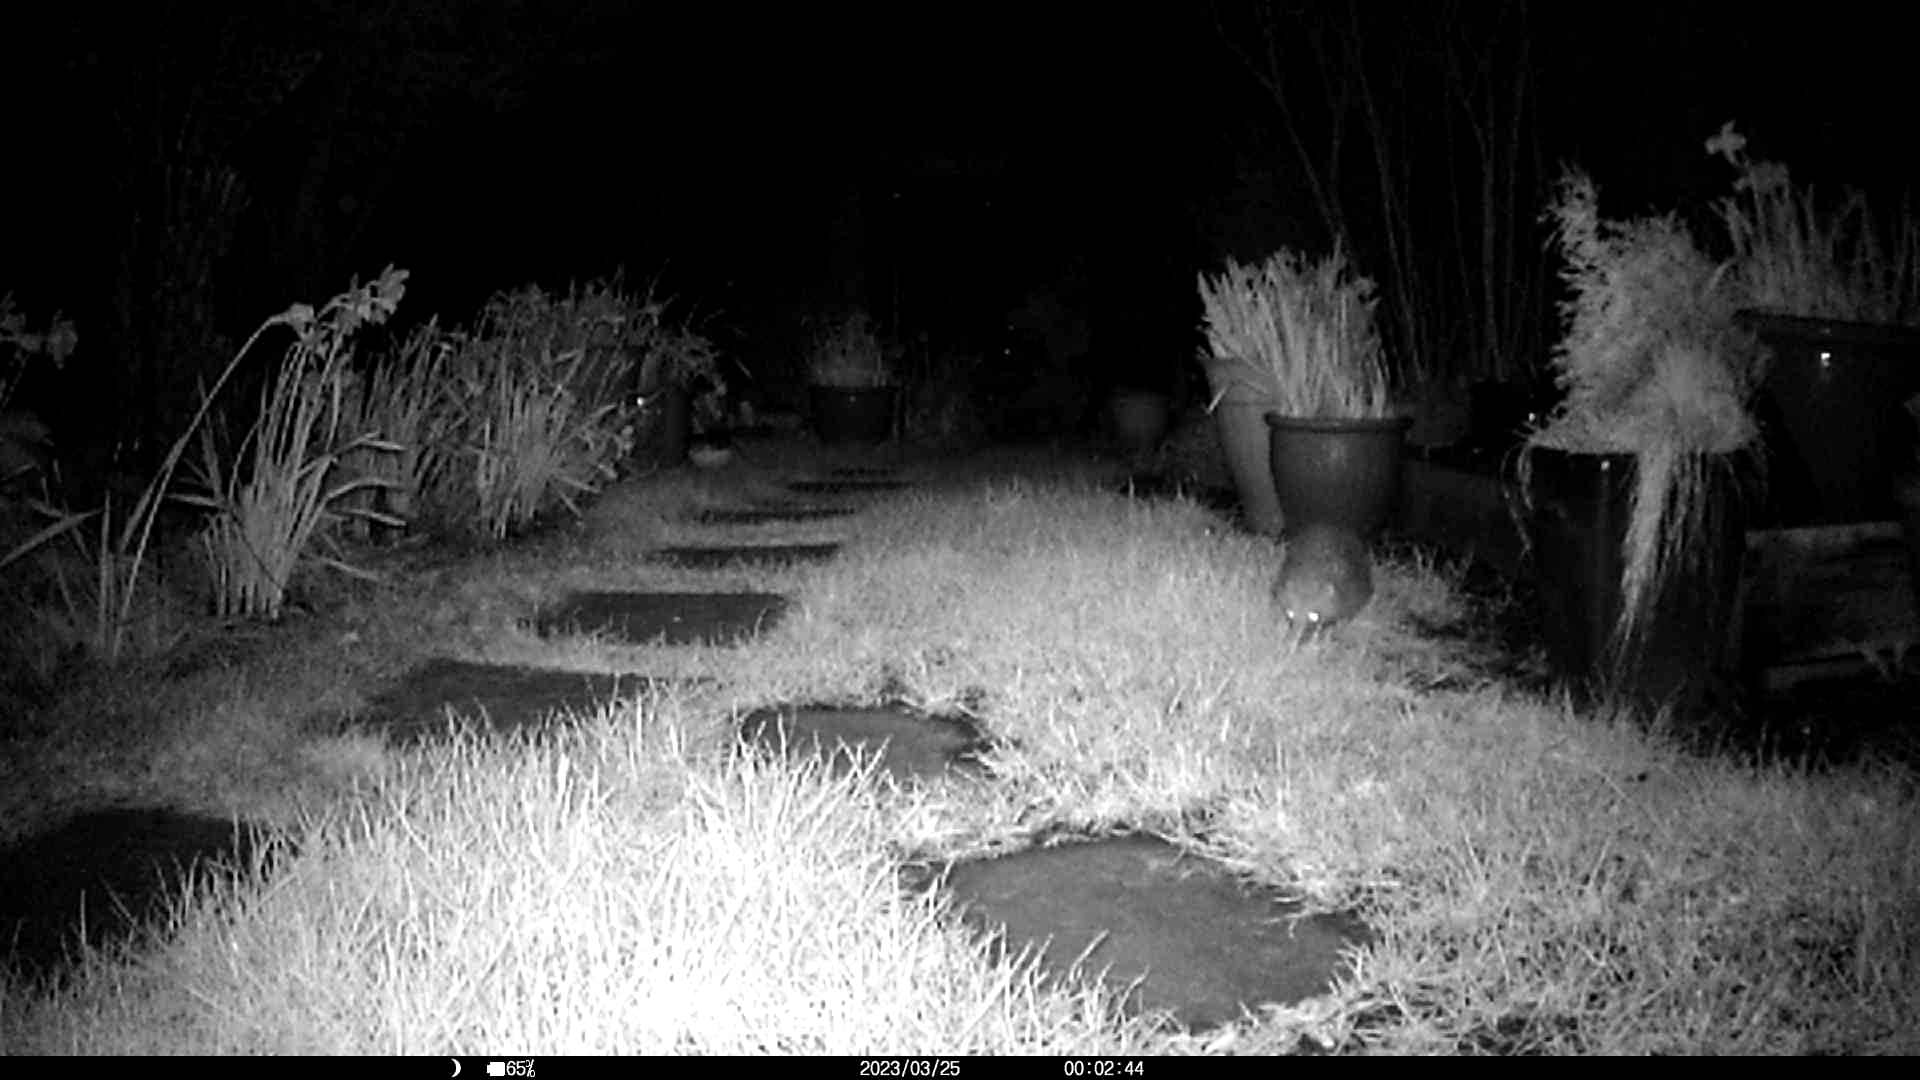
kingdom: Animalia
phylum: Chordata
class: Mammalia
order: Erinaceomorpha
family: Erinaceidae
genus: Erinaceus
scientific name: Erinaceus europaeus
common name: West european hedgehog
